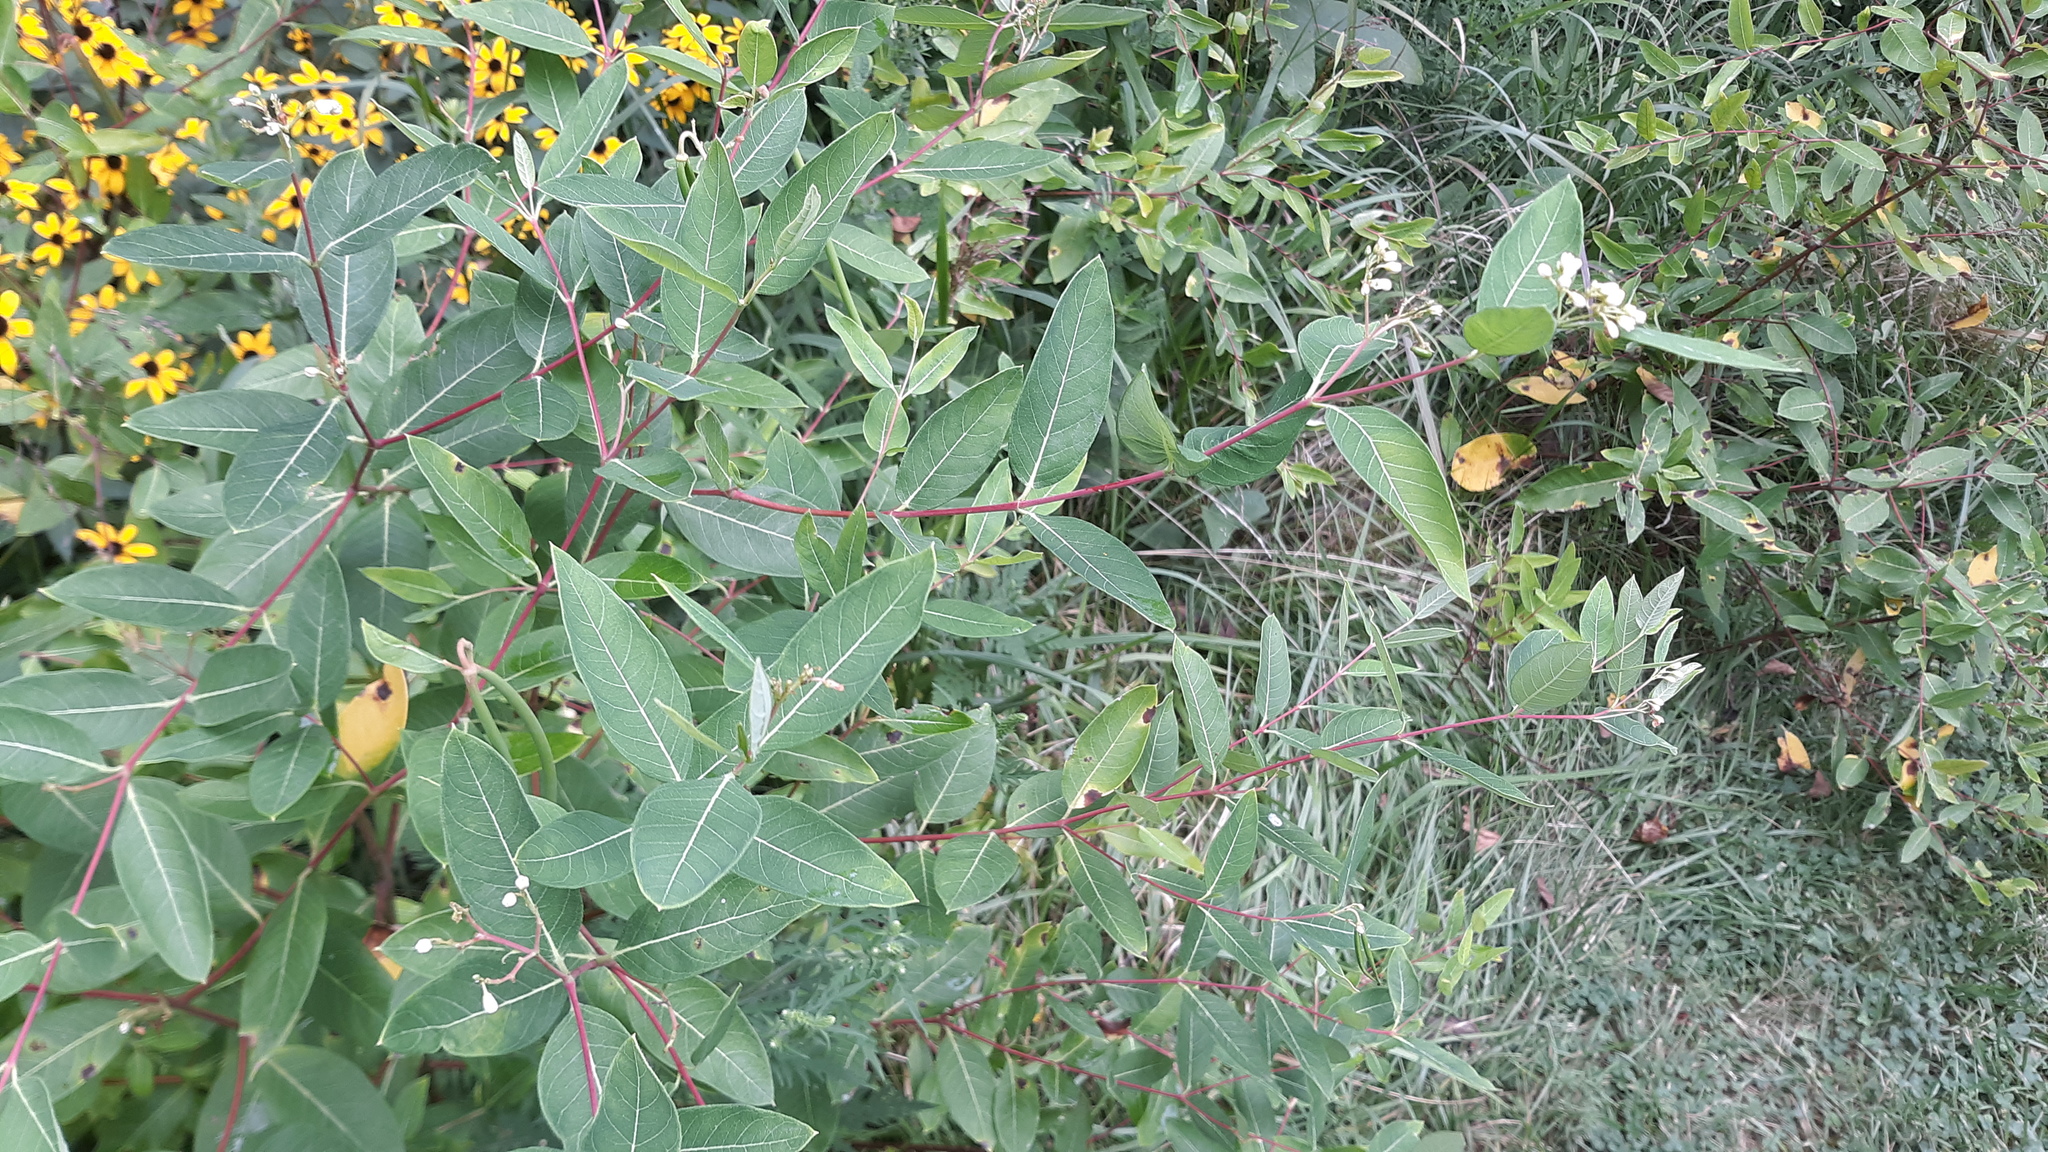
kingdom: Plantae
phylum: Tracheophyta
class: Magnoliopsida
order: Gentianales
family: Apocynaceae
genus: Apocynum
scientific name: Apocynum cannabinum
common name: Hemp dogbane
